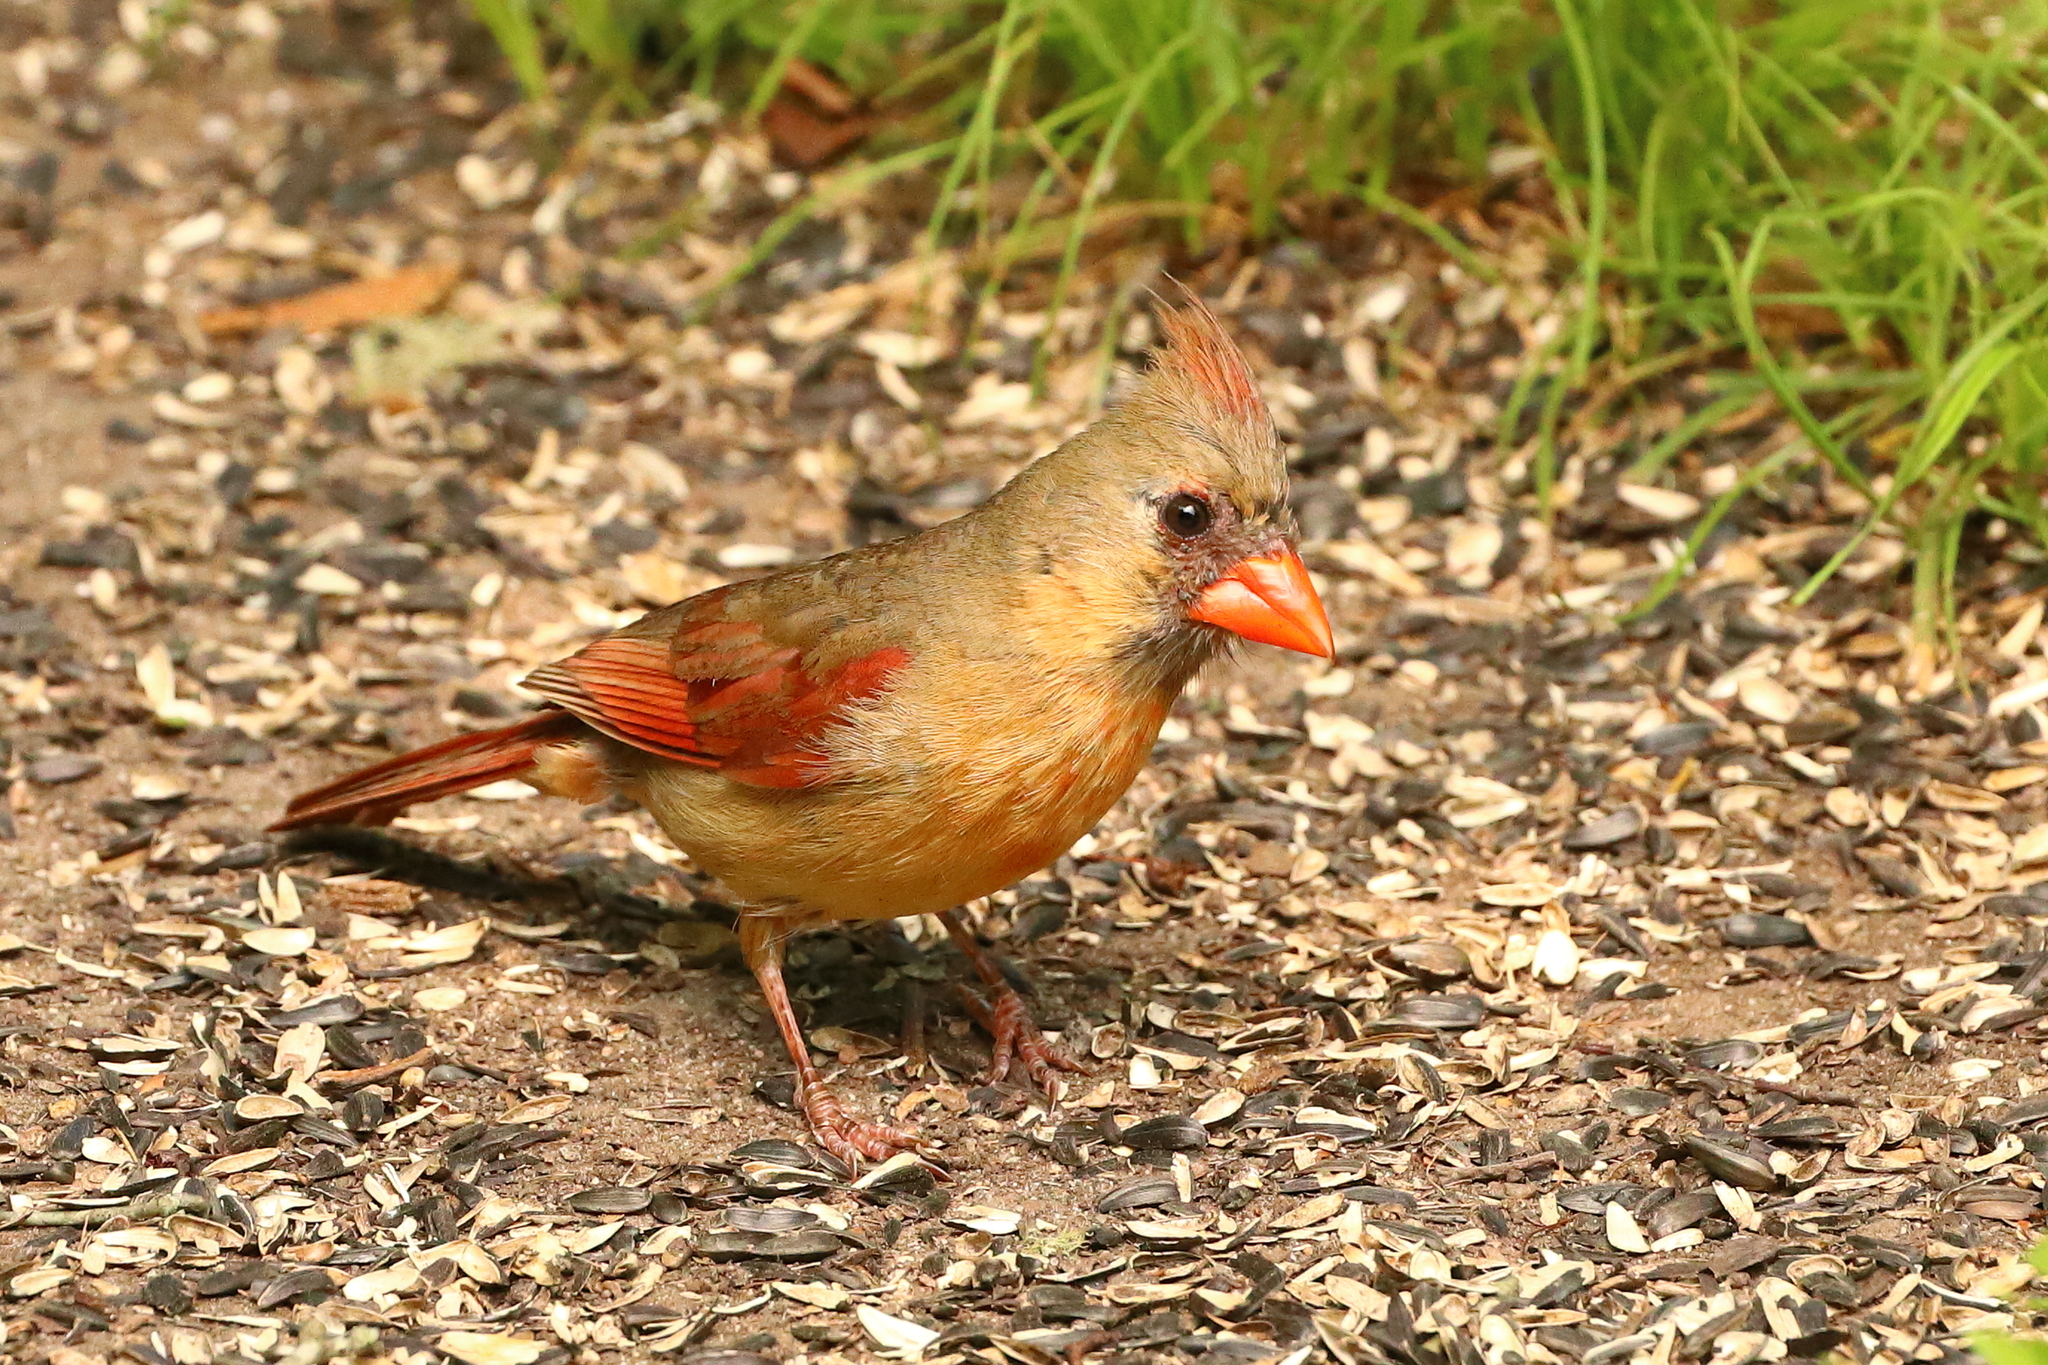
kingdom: Animalia
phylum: Chordata
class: Aves
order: Passeriformes
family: Cardinalidae
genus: Cardinalis
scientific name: Cardinalis cardinalis
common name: Northern cardinal
